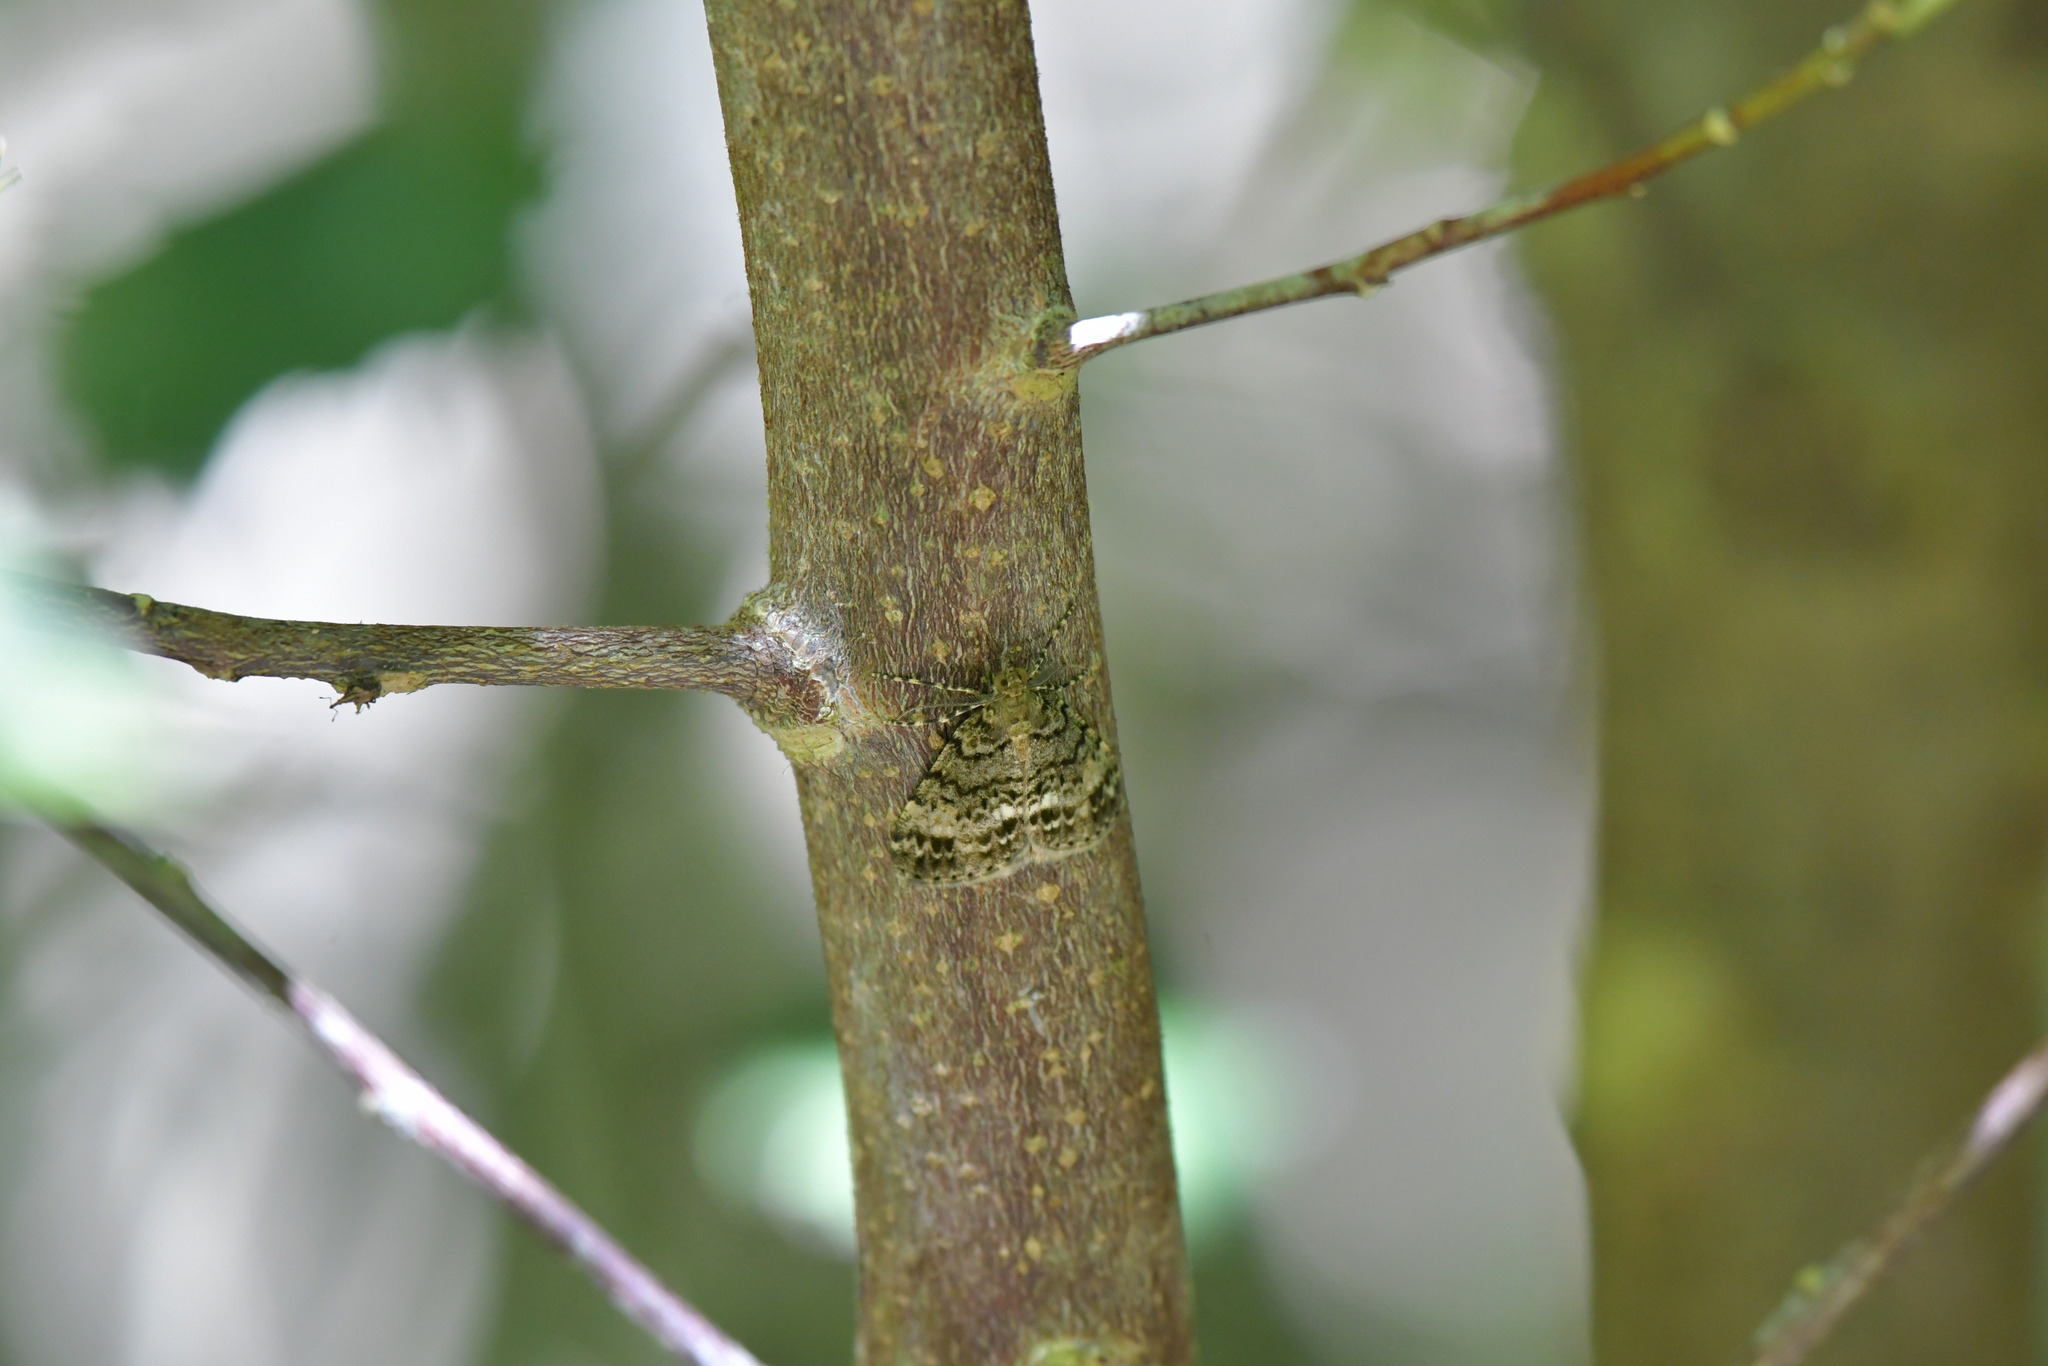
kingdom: Animalia
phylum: Arthropoda
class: Insecta
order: Lepidoptera
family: Geometridae
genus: Pseudocoremia
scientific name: Pseudocoremia indistincta
